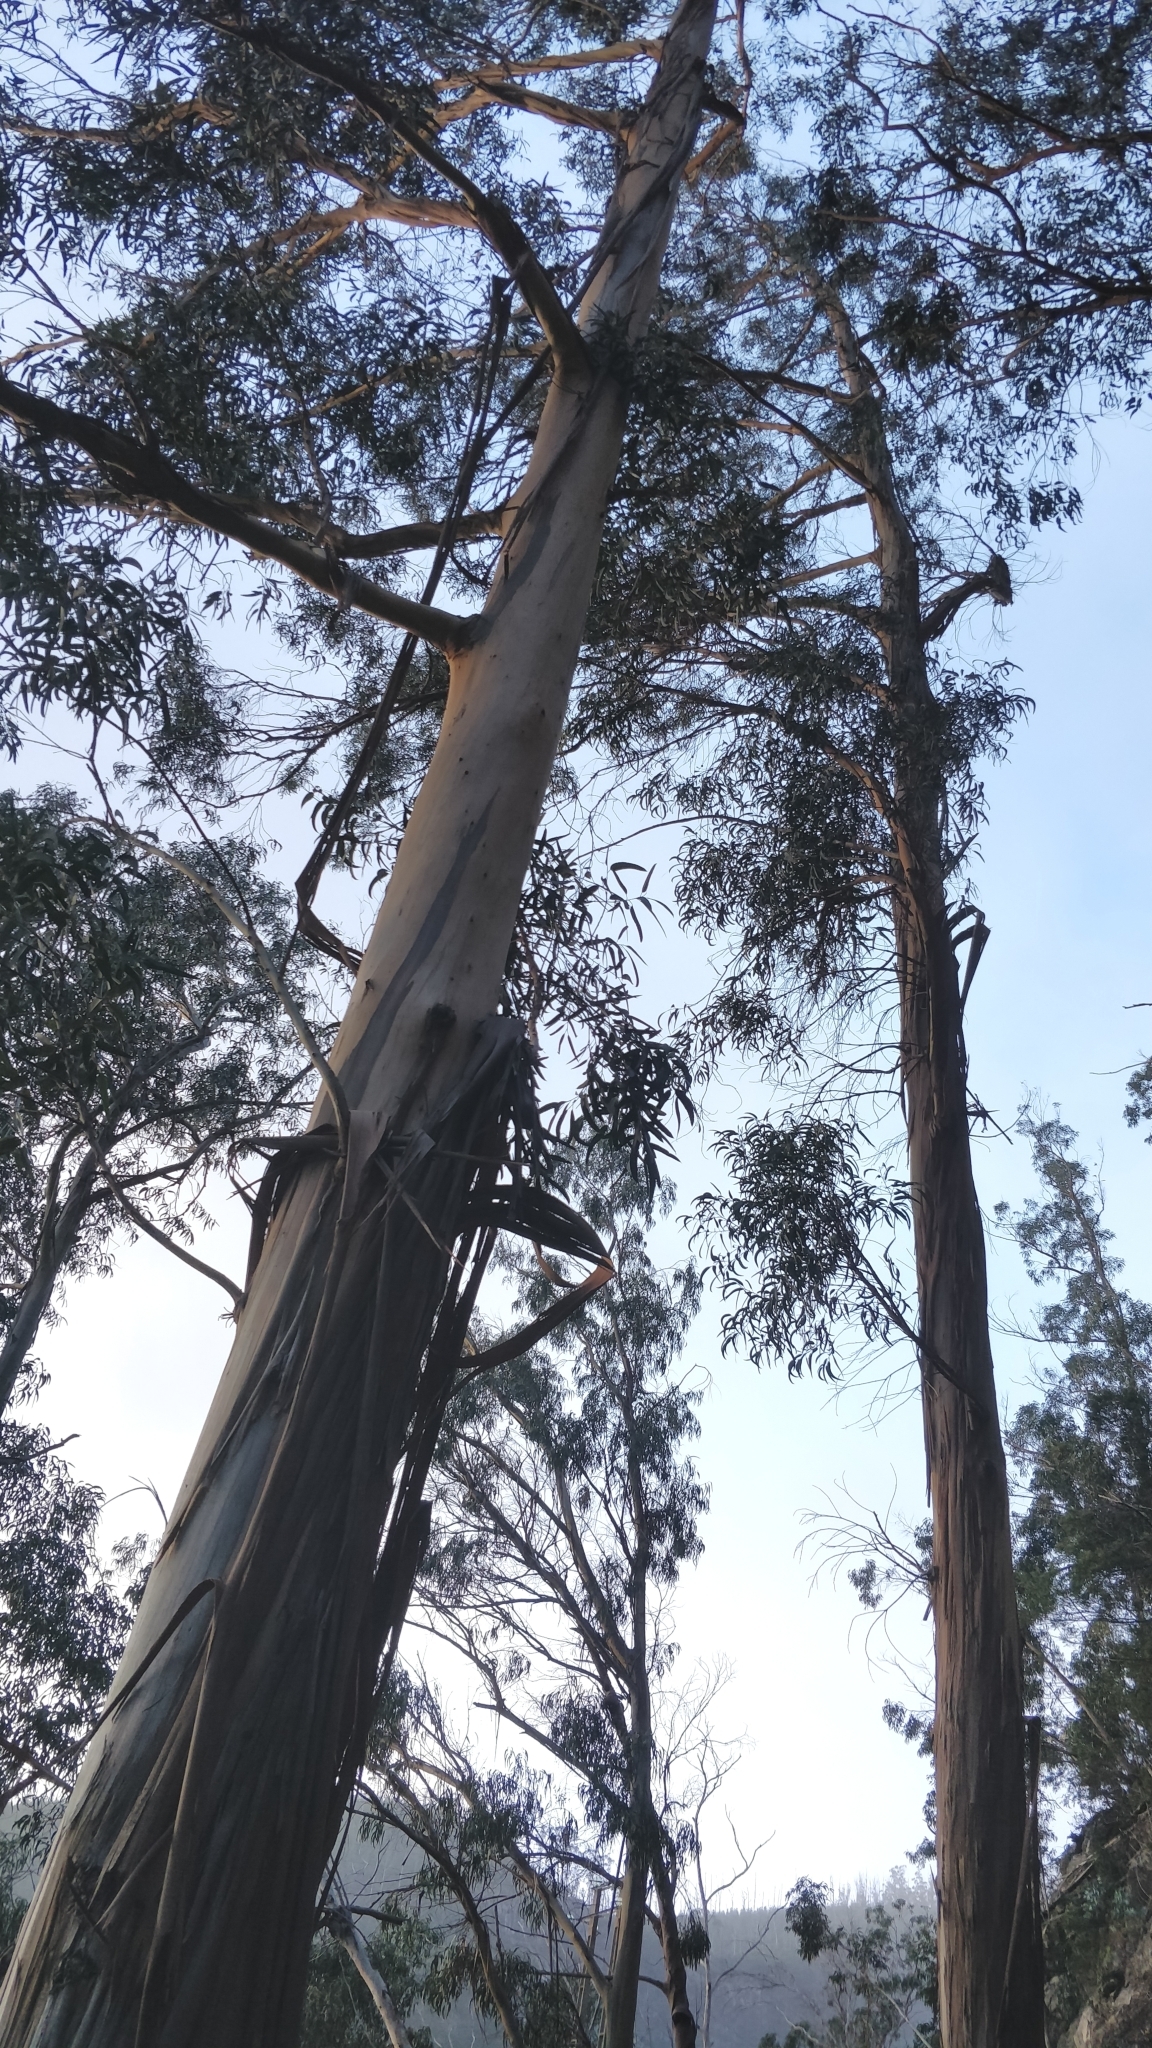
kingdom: Plantae
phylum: Tracheophyta
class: Magnoliopsida
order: Myrtales
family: Myrtaceae
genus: Eucalyptus
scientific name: Eucalyptus globulus
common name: Southern blue-gum
